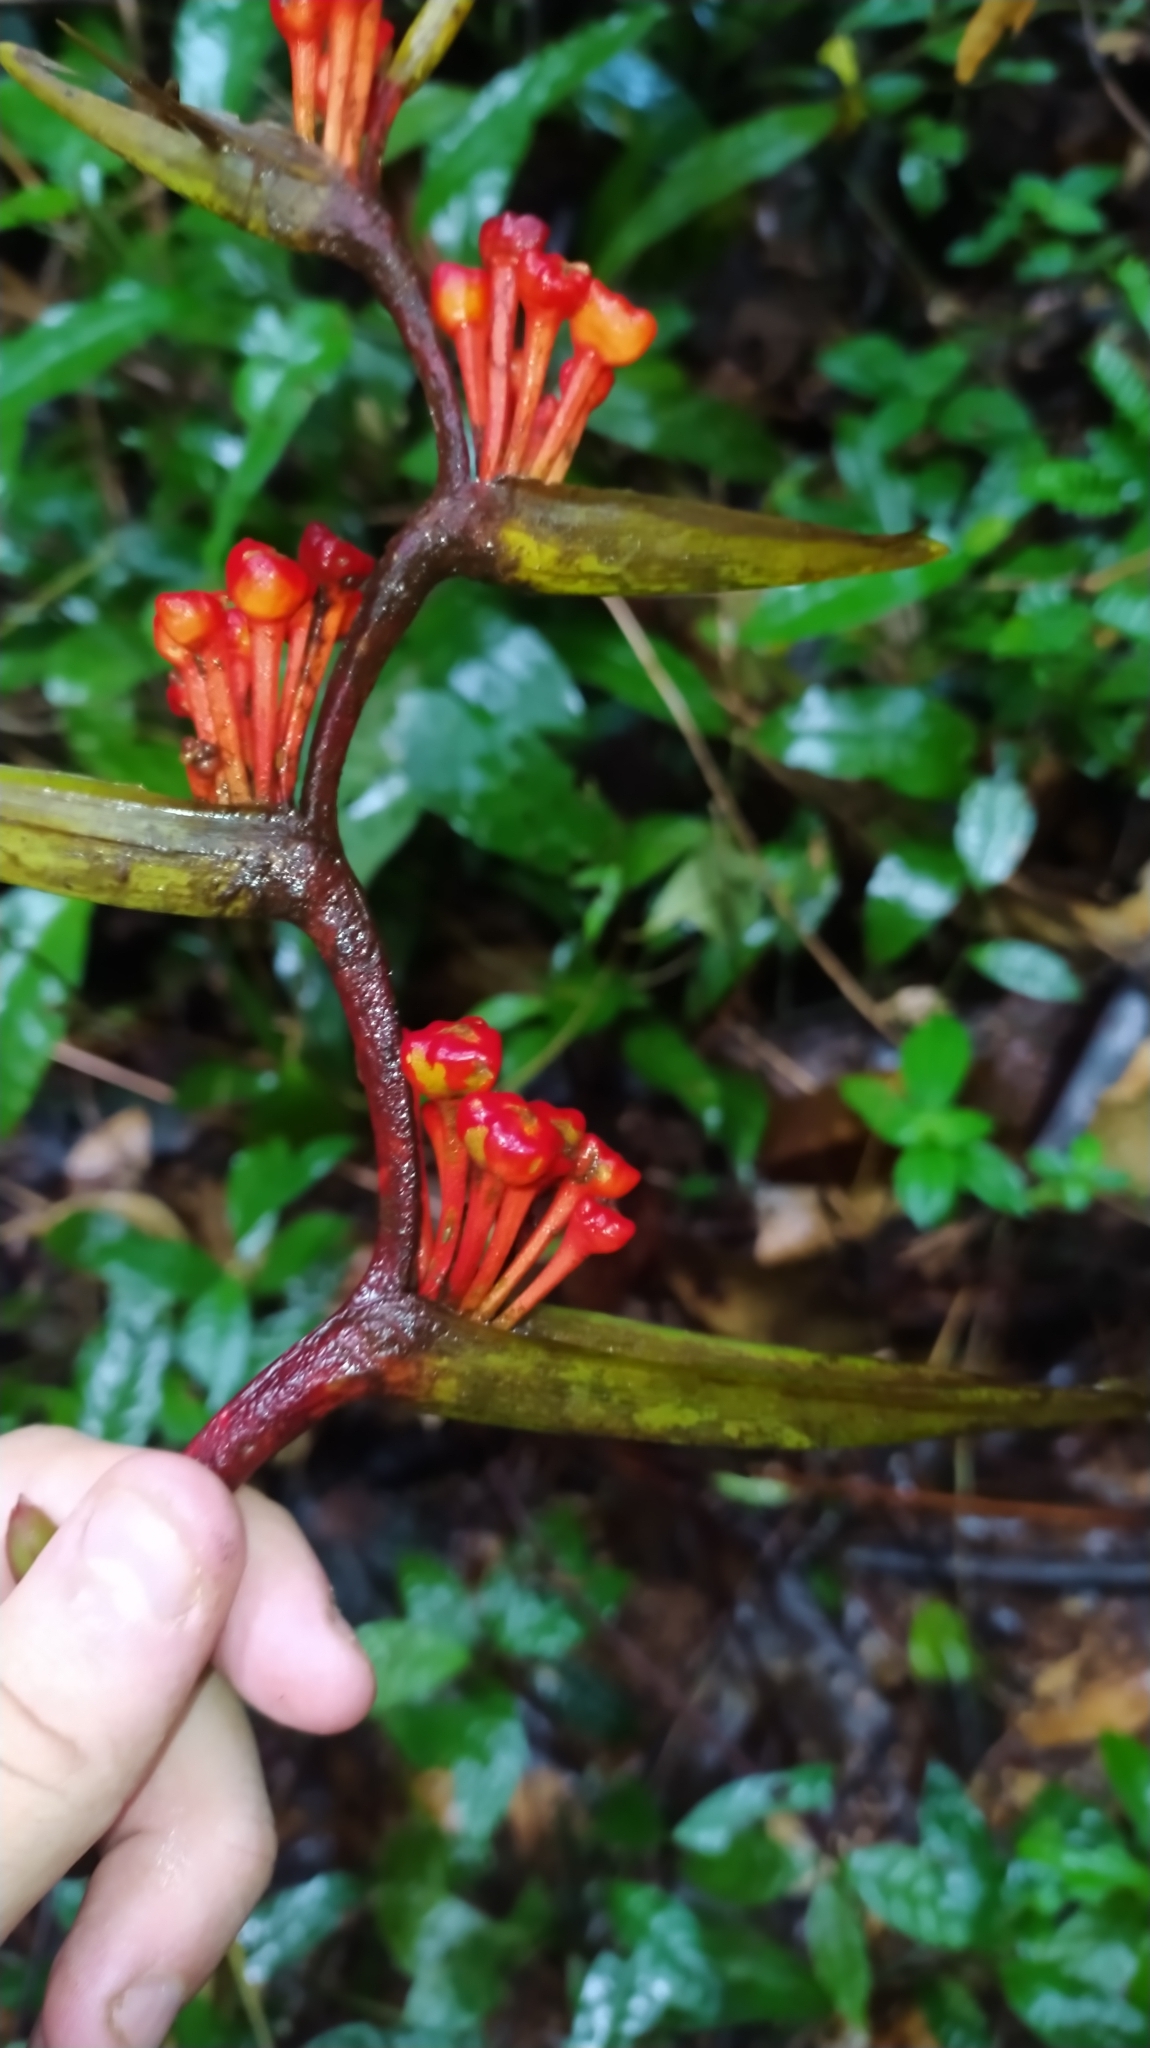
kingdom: Plantae
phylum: Tracheophyta
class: Liliopsida
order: Zingiberales
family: Heliconiaceae
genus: Heliconia
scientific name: Heliconia richardiana
